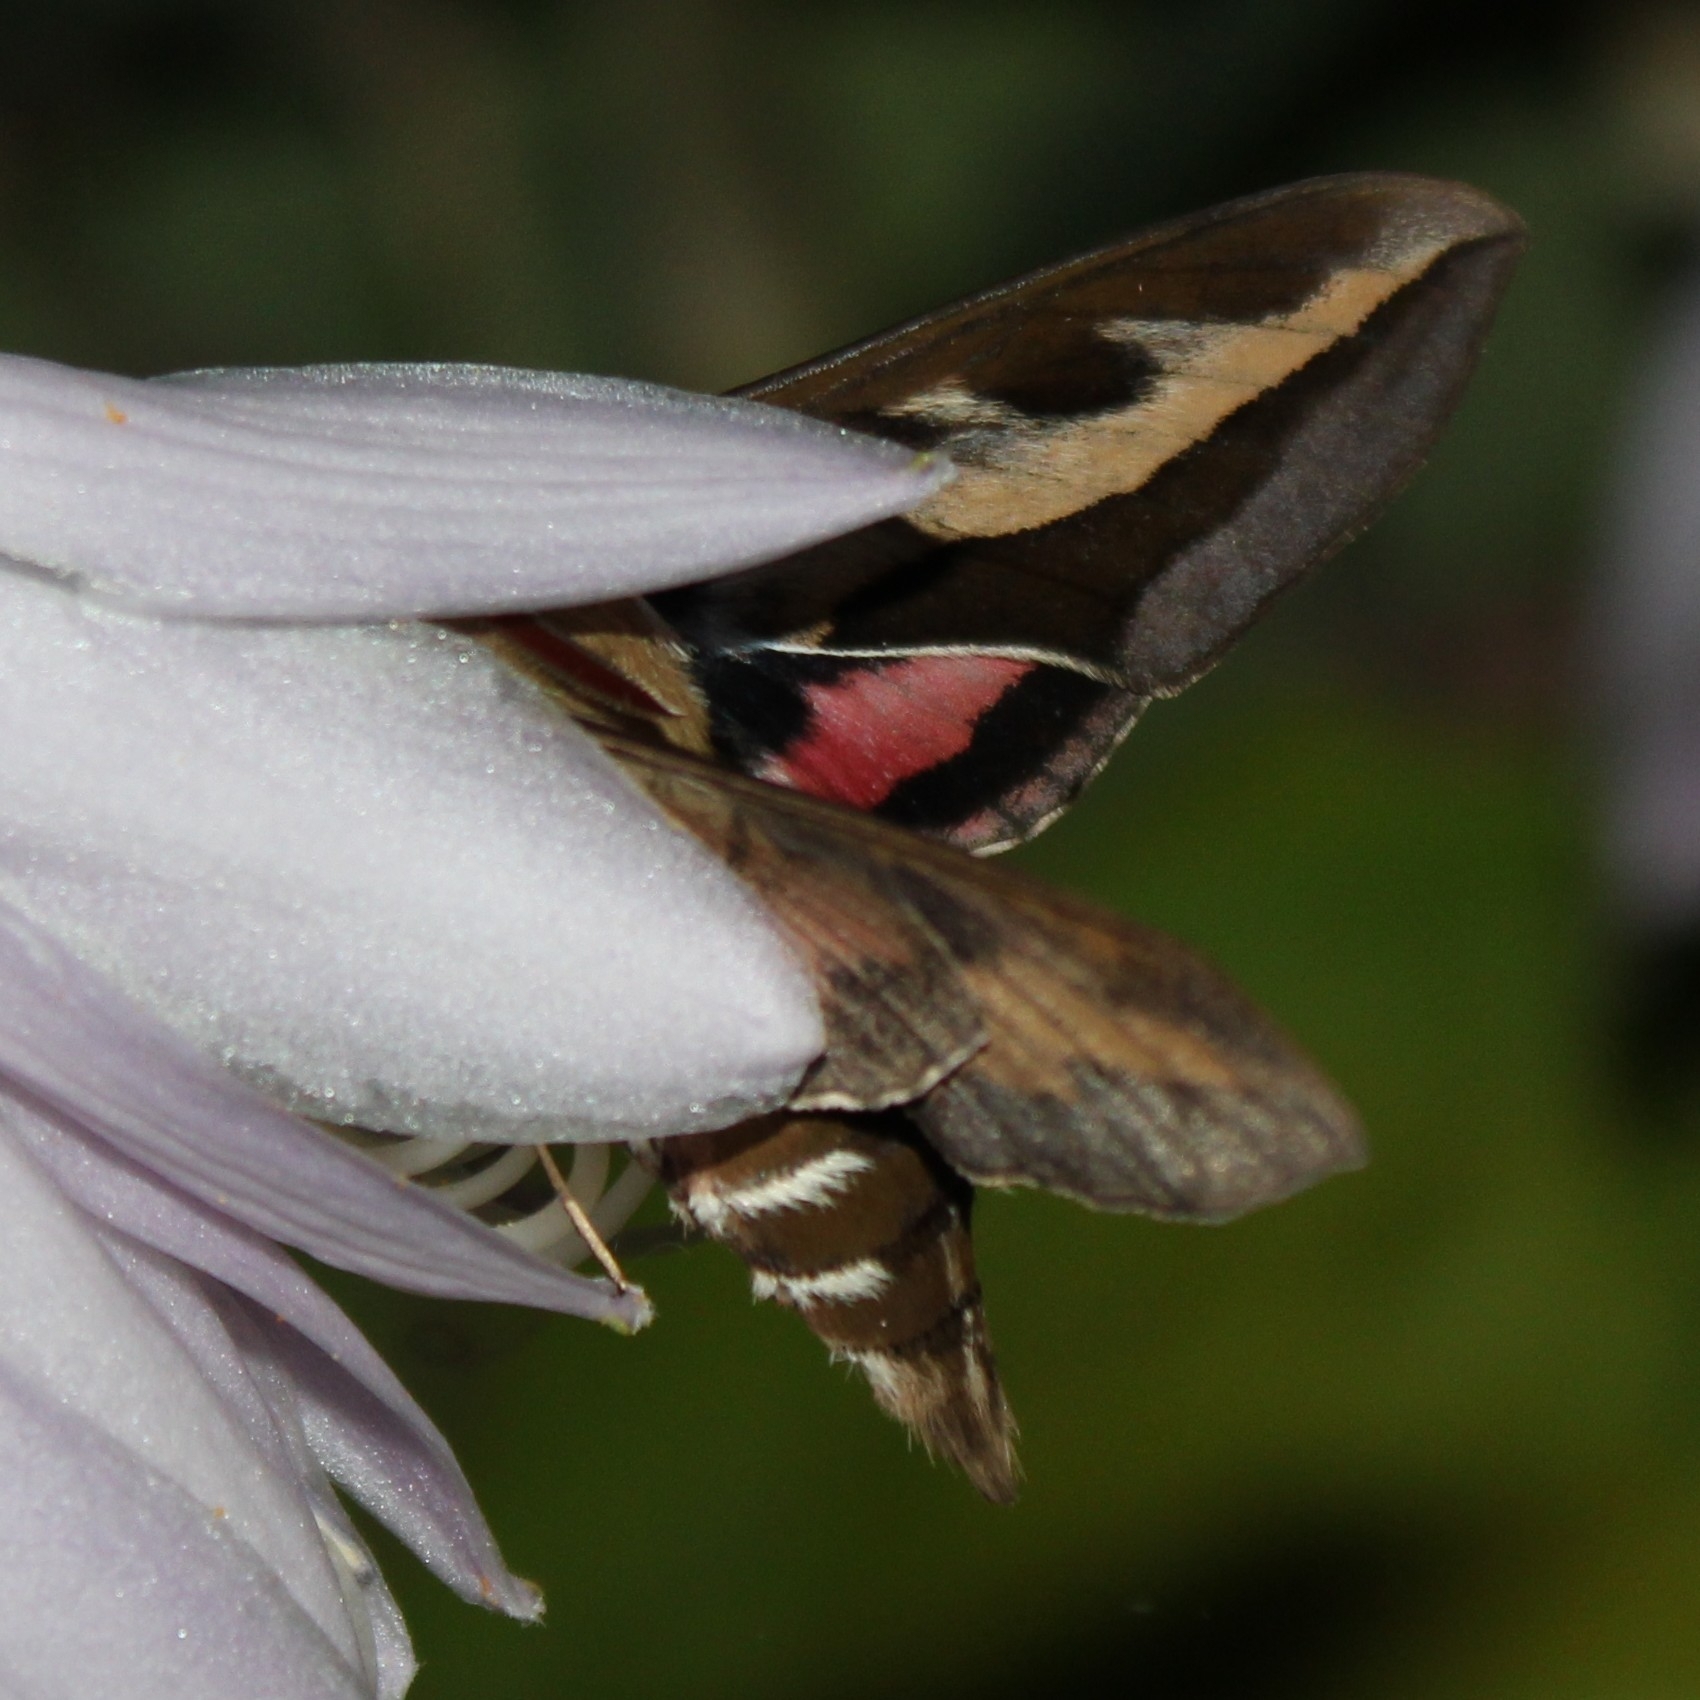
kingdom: Animalia
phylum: Arthropoda
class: Insecta
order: Lepidoptera
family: Sphingidae
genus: Hyles
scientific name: Hyles gallii
